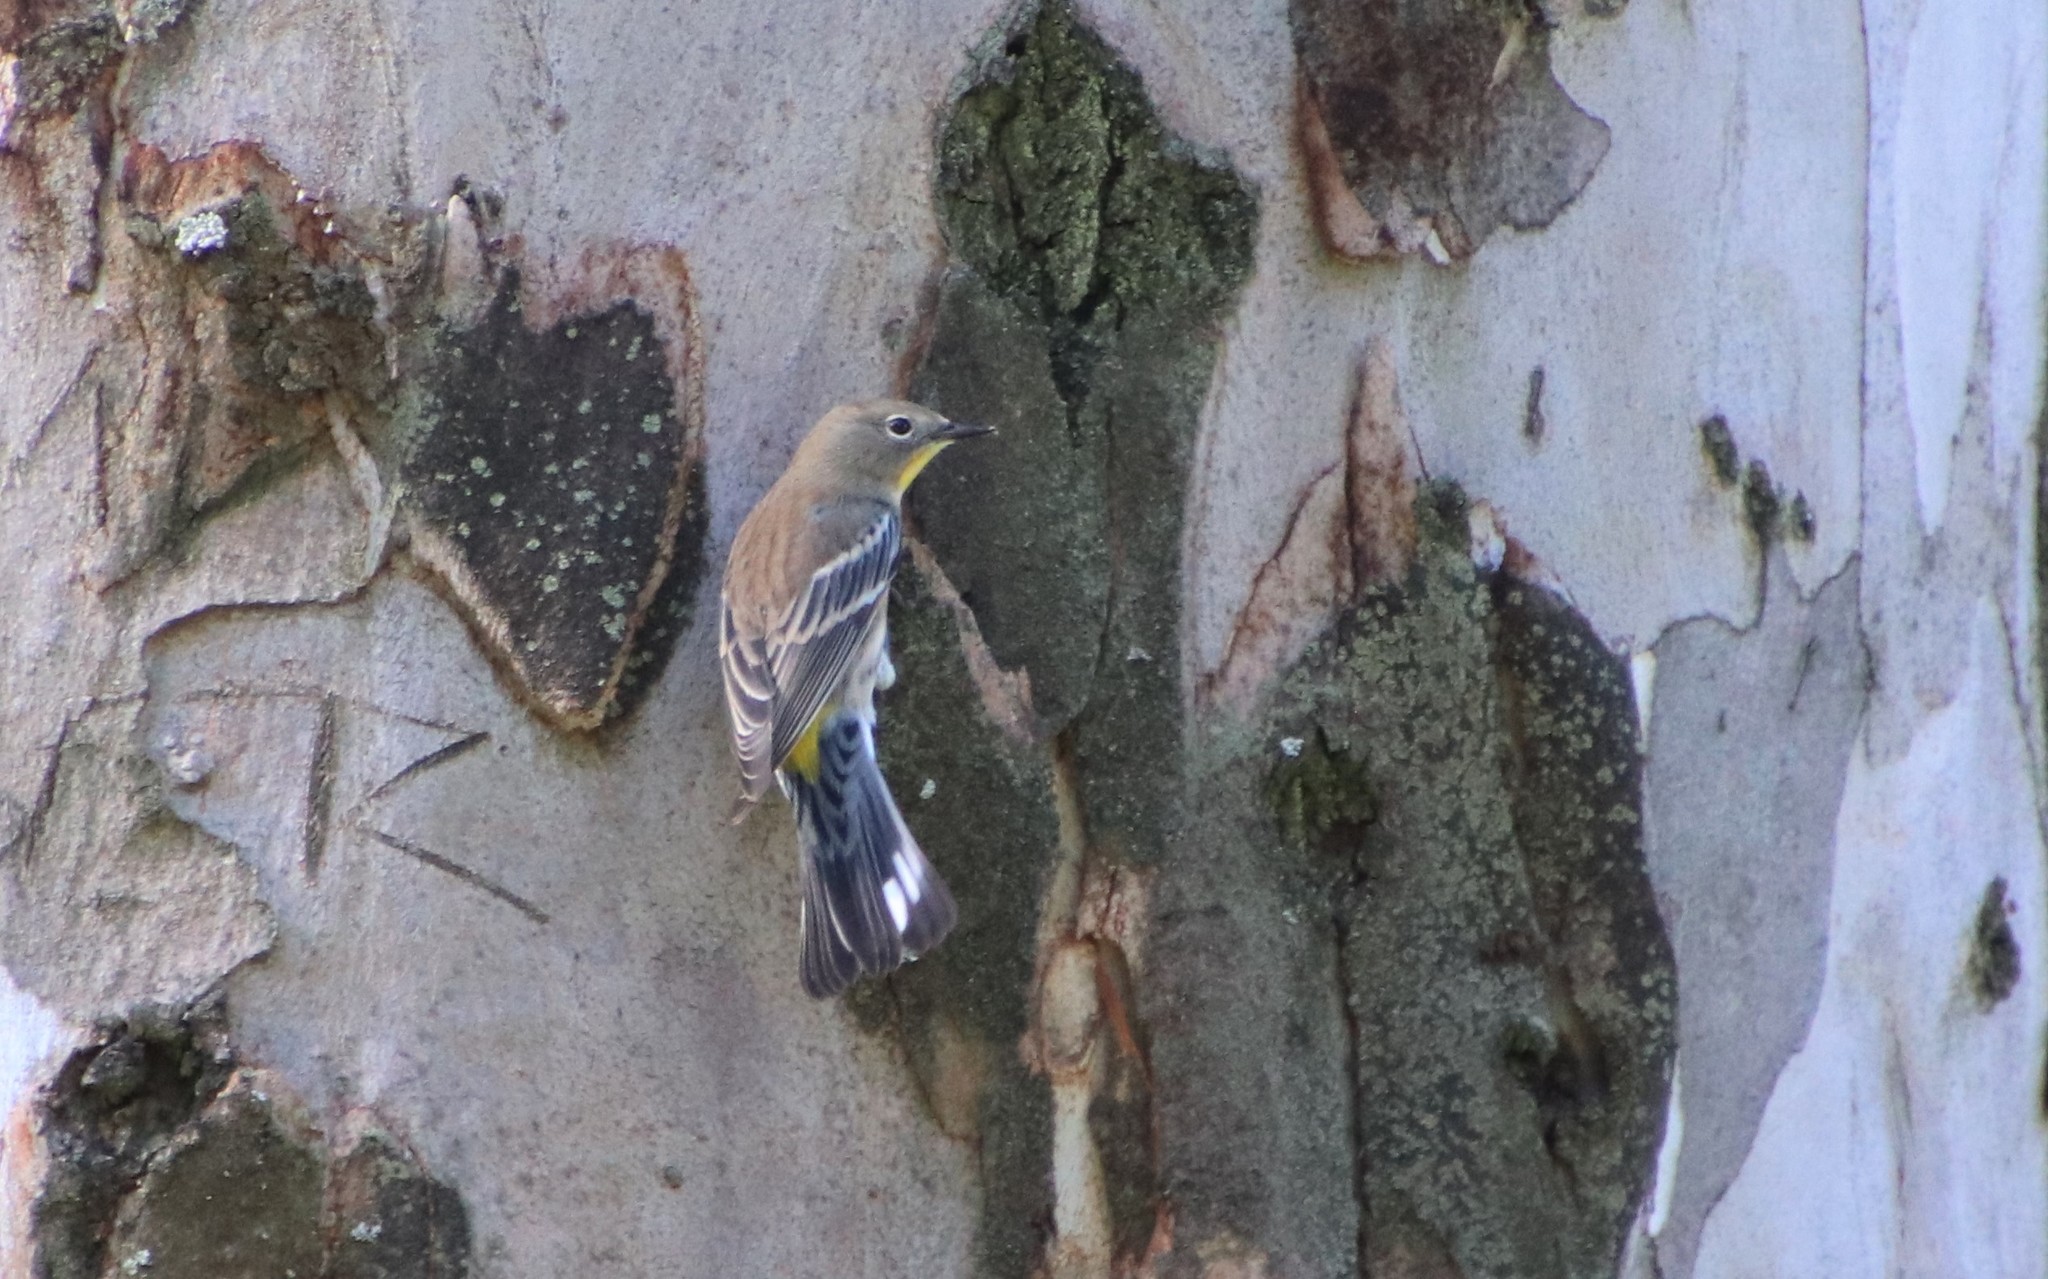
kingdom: Animalia
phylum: Chordata
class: Aves
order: Passeriformes
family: Parulidae
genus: Setophaga
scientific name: Setophaga auduboni
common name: Audubon's warbler
